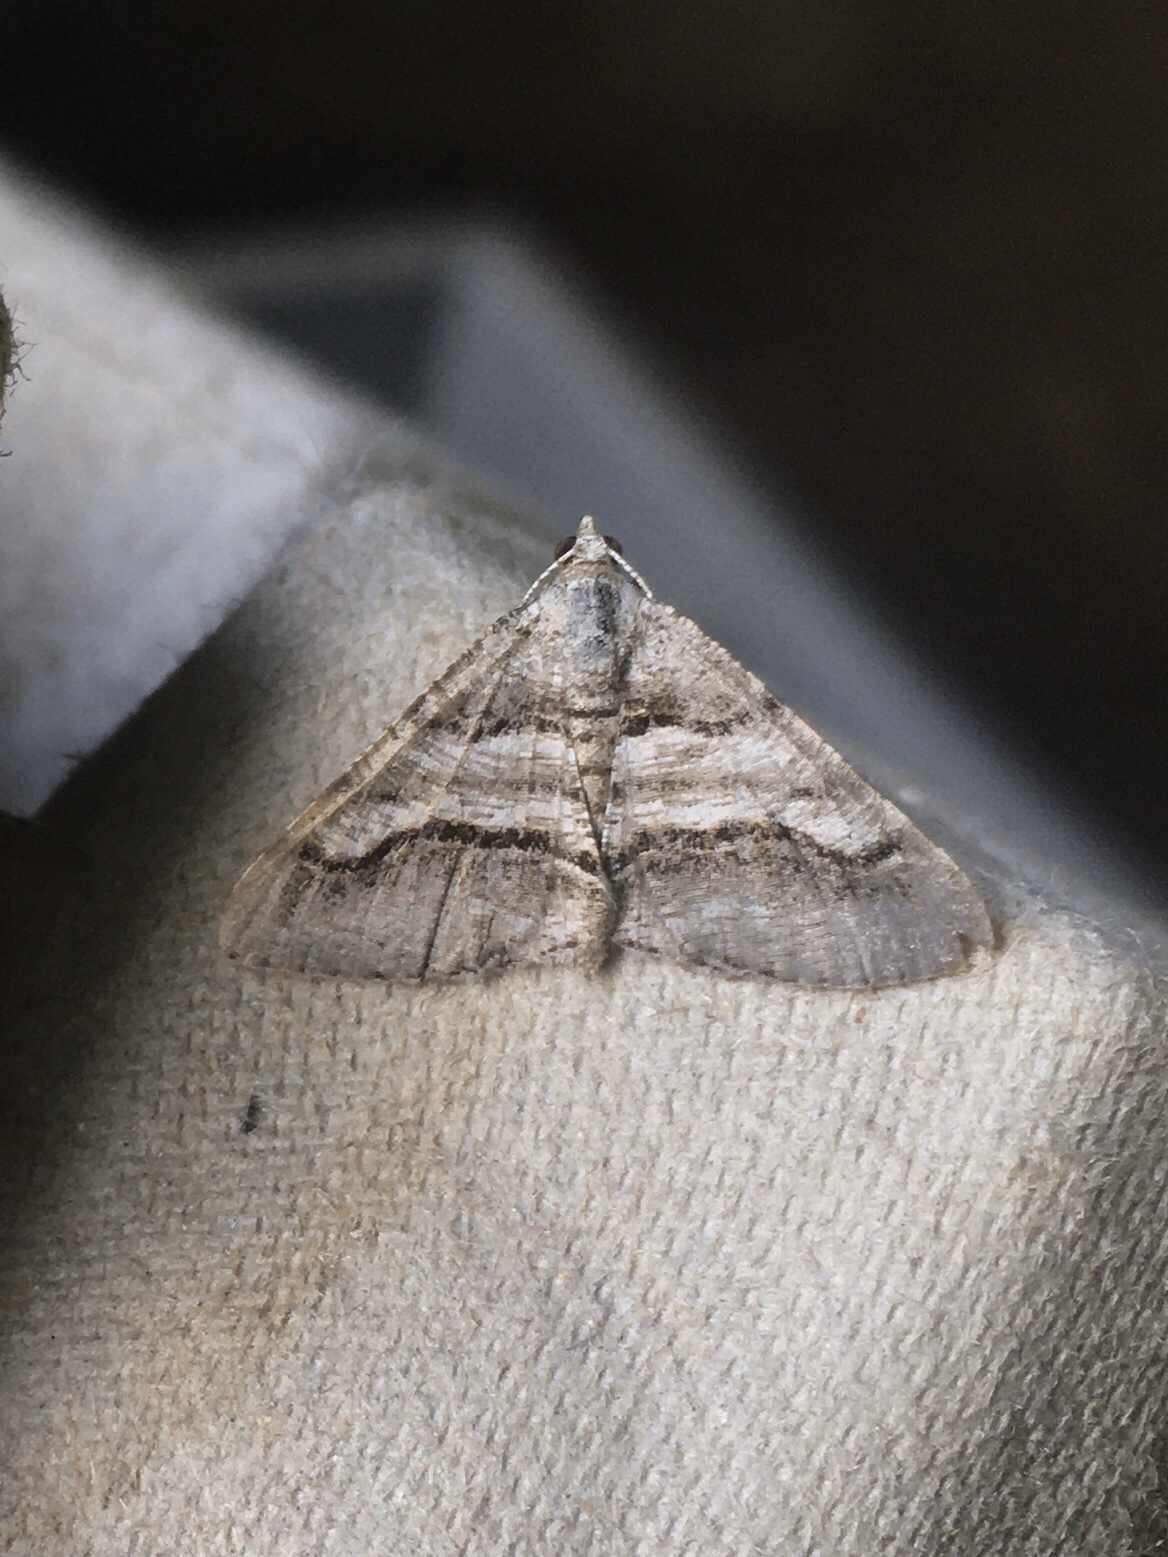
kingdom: Animalia
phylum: Arthropoda
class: Insecta
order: Lepidoptera
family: Geometridae
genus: Digrammia
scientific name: Digrammia continuata
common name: Curve-lined angle
